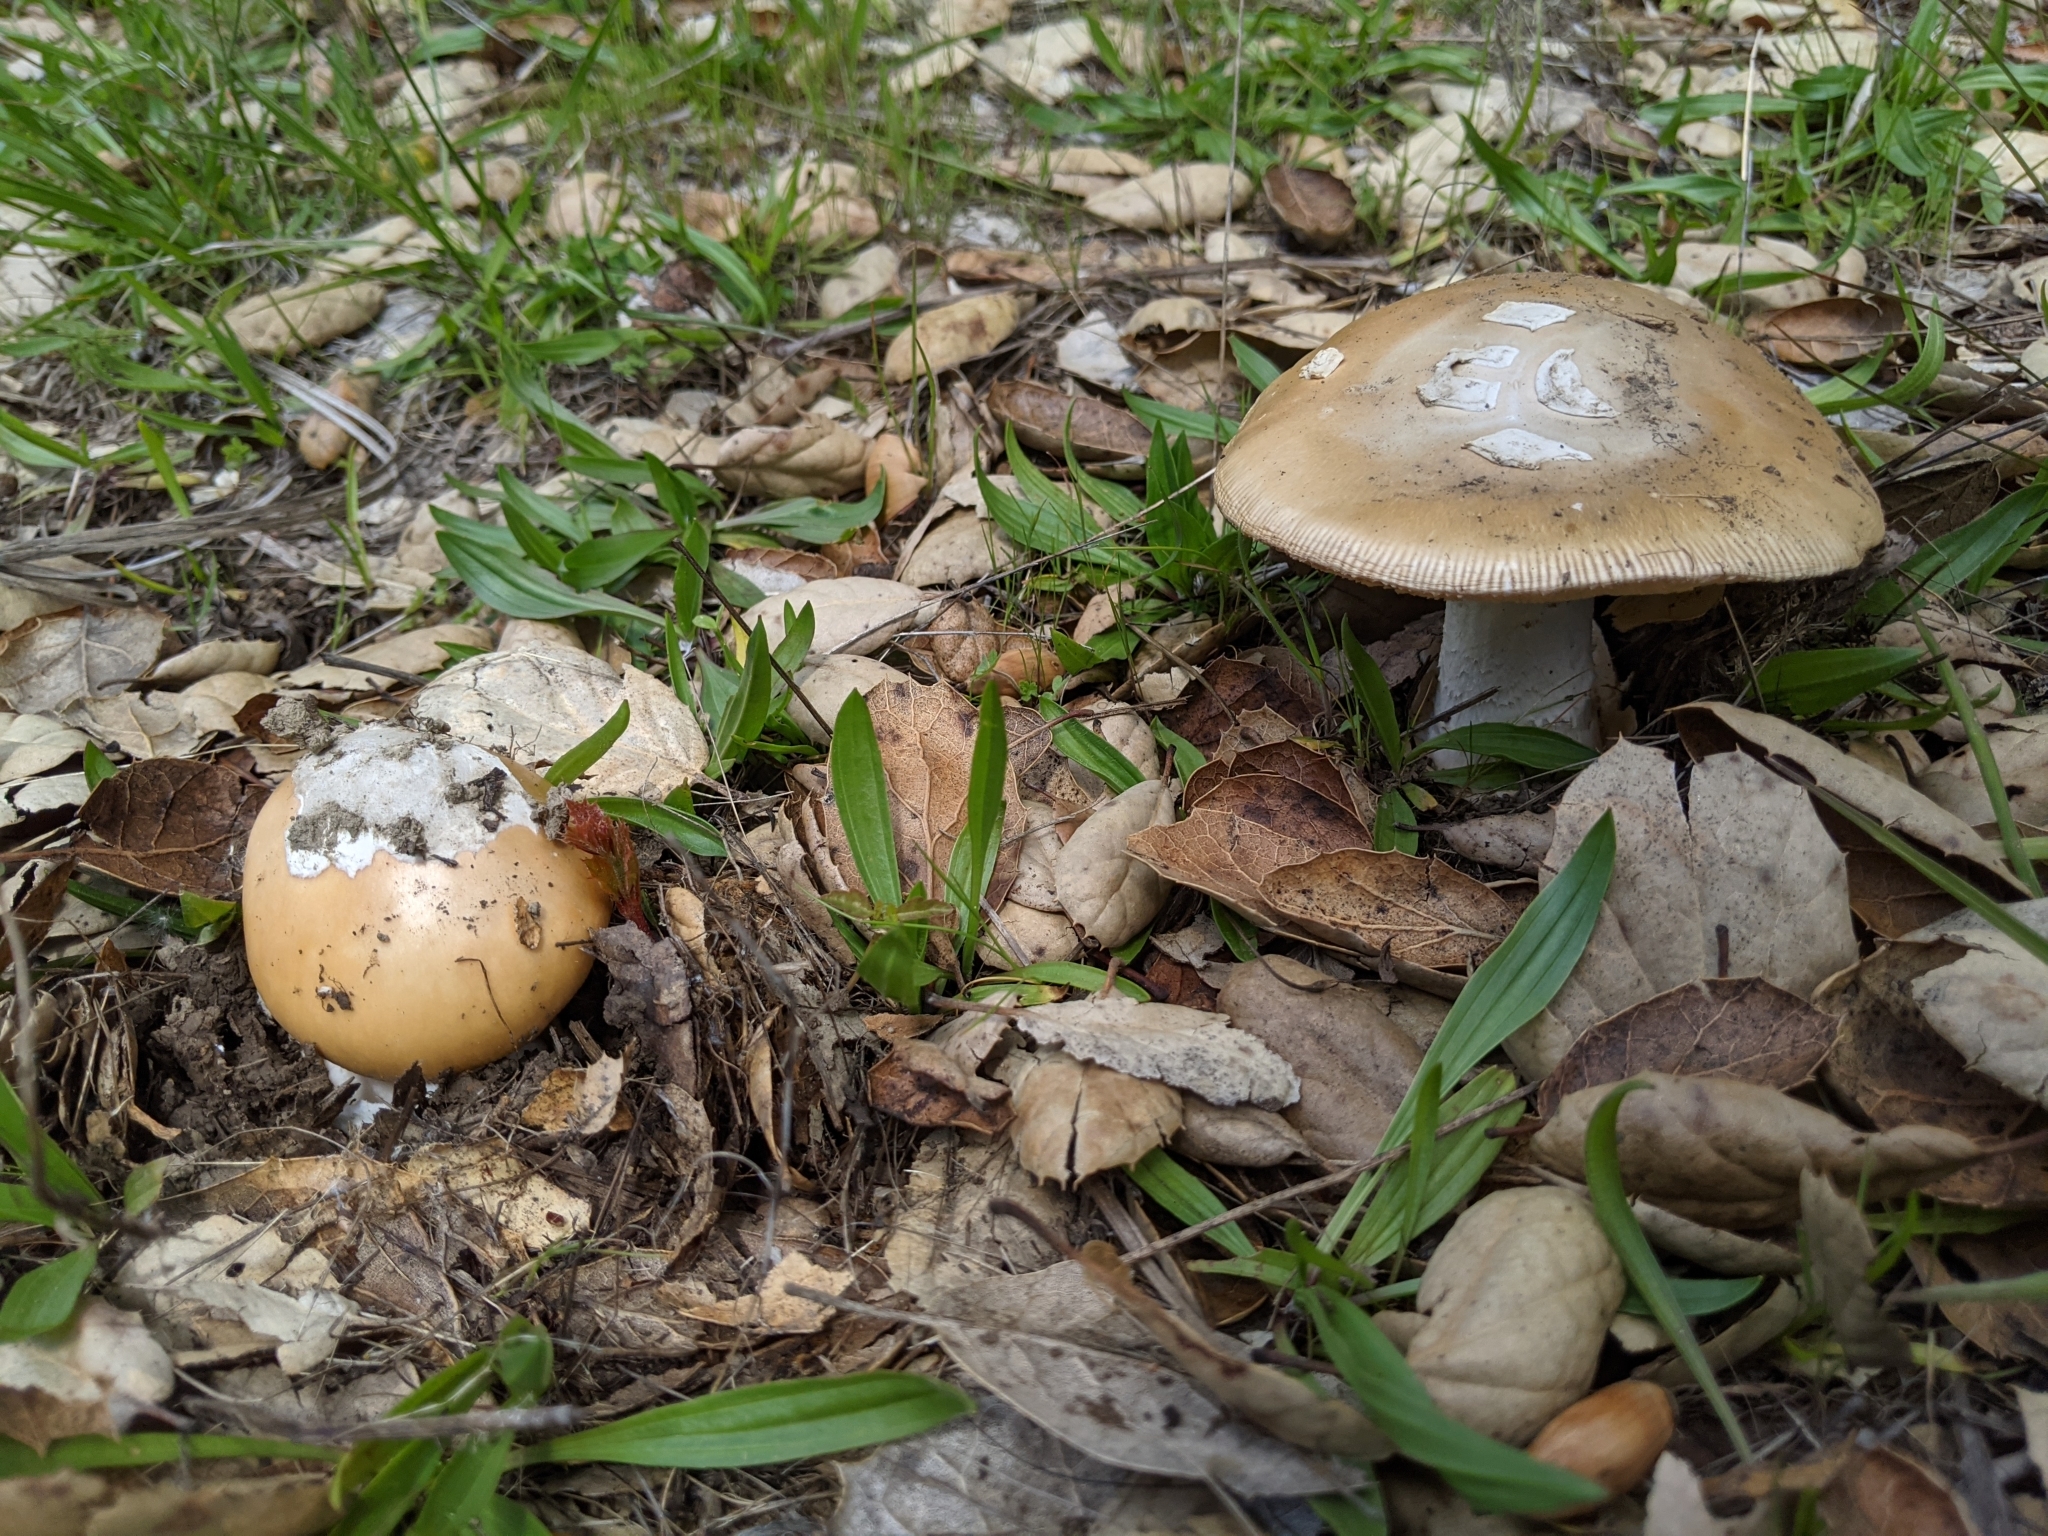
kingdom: Fungi
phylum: Basidiomycota
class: Agaricomycetes
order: Agaricales
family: Amanitaceae
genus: Amanita
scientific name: Amanita velosa
